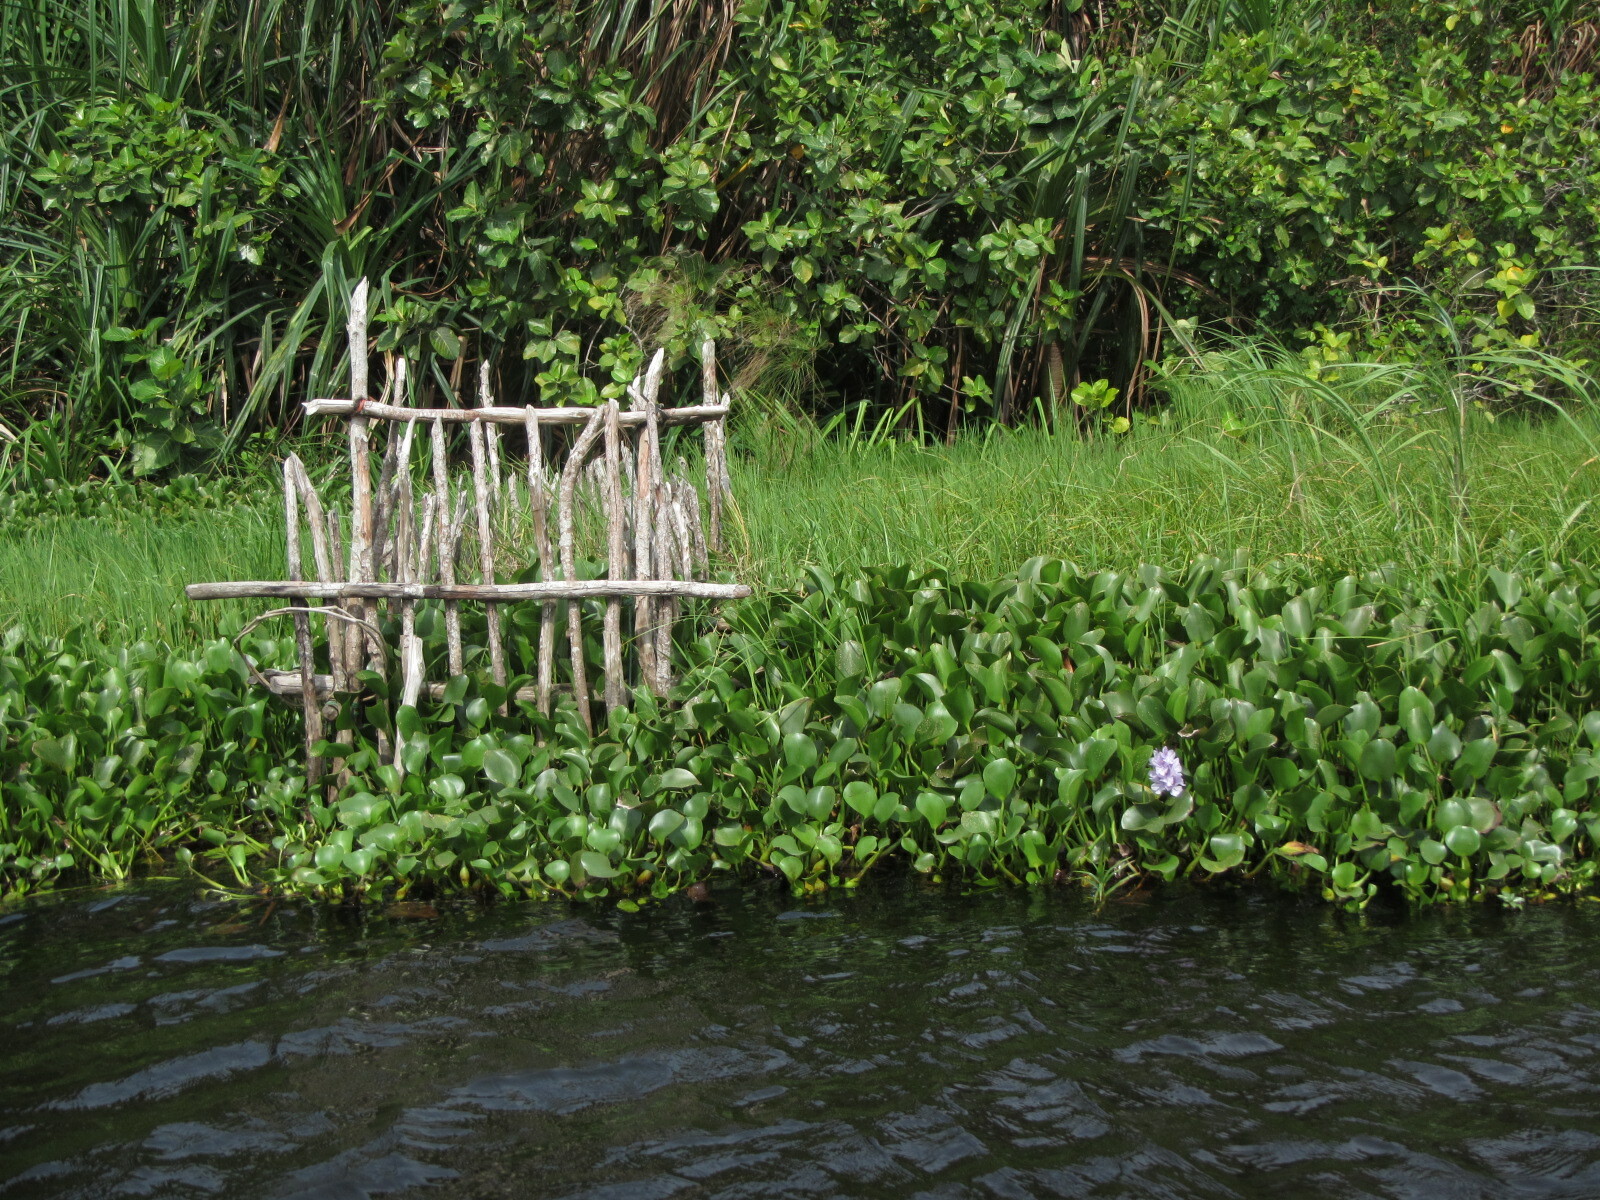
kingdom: Plantae
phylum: Tracheophyta
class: Liliopsida
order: Commelinales
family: Pontederiaceae
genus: Pontederia
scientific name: Pontederia crassipes
